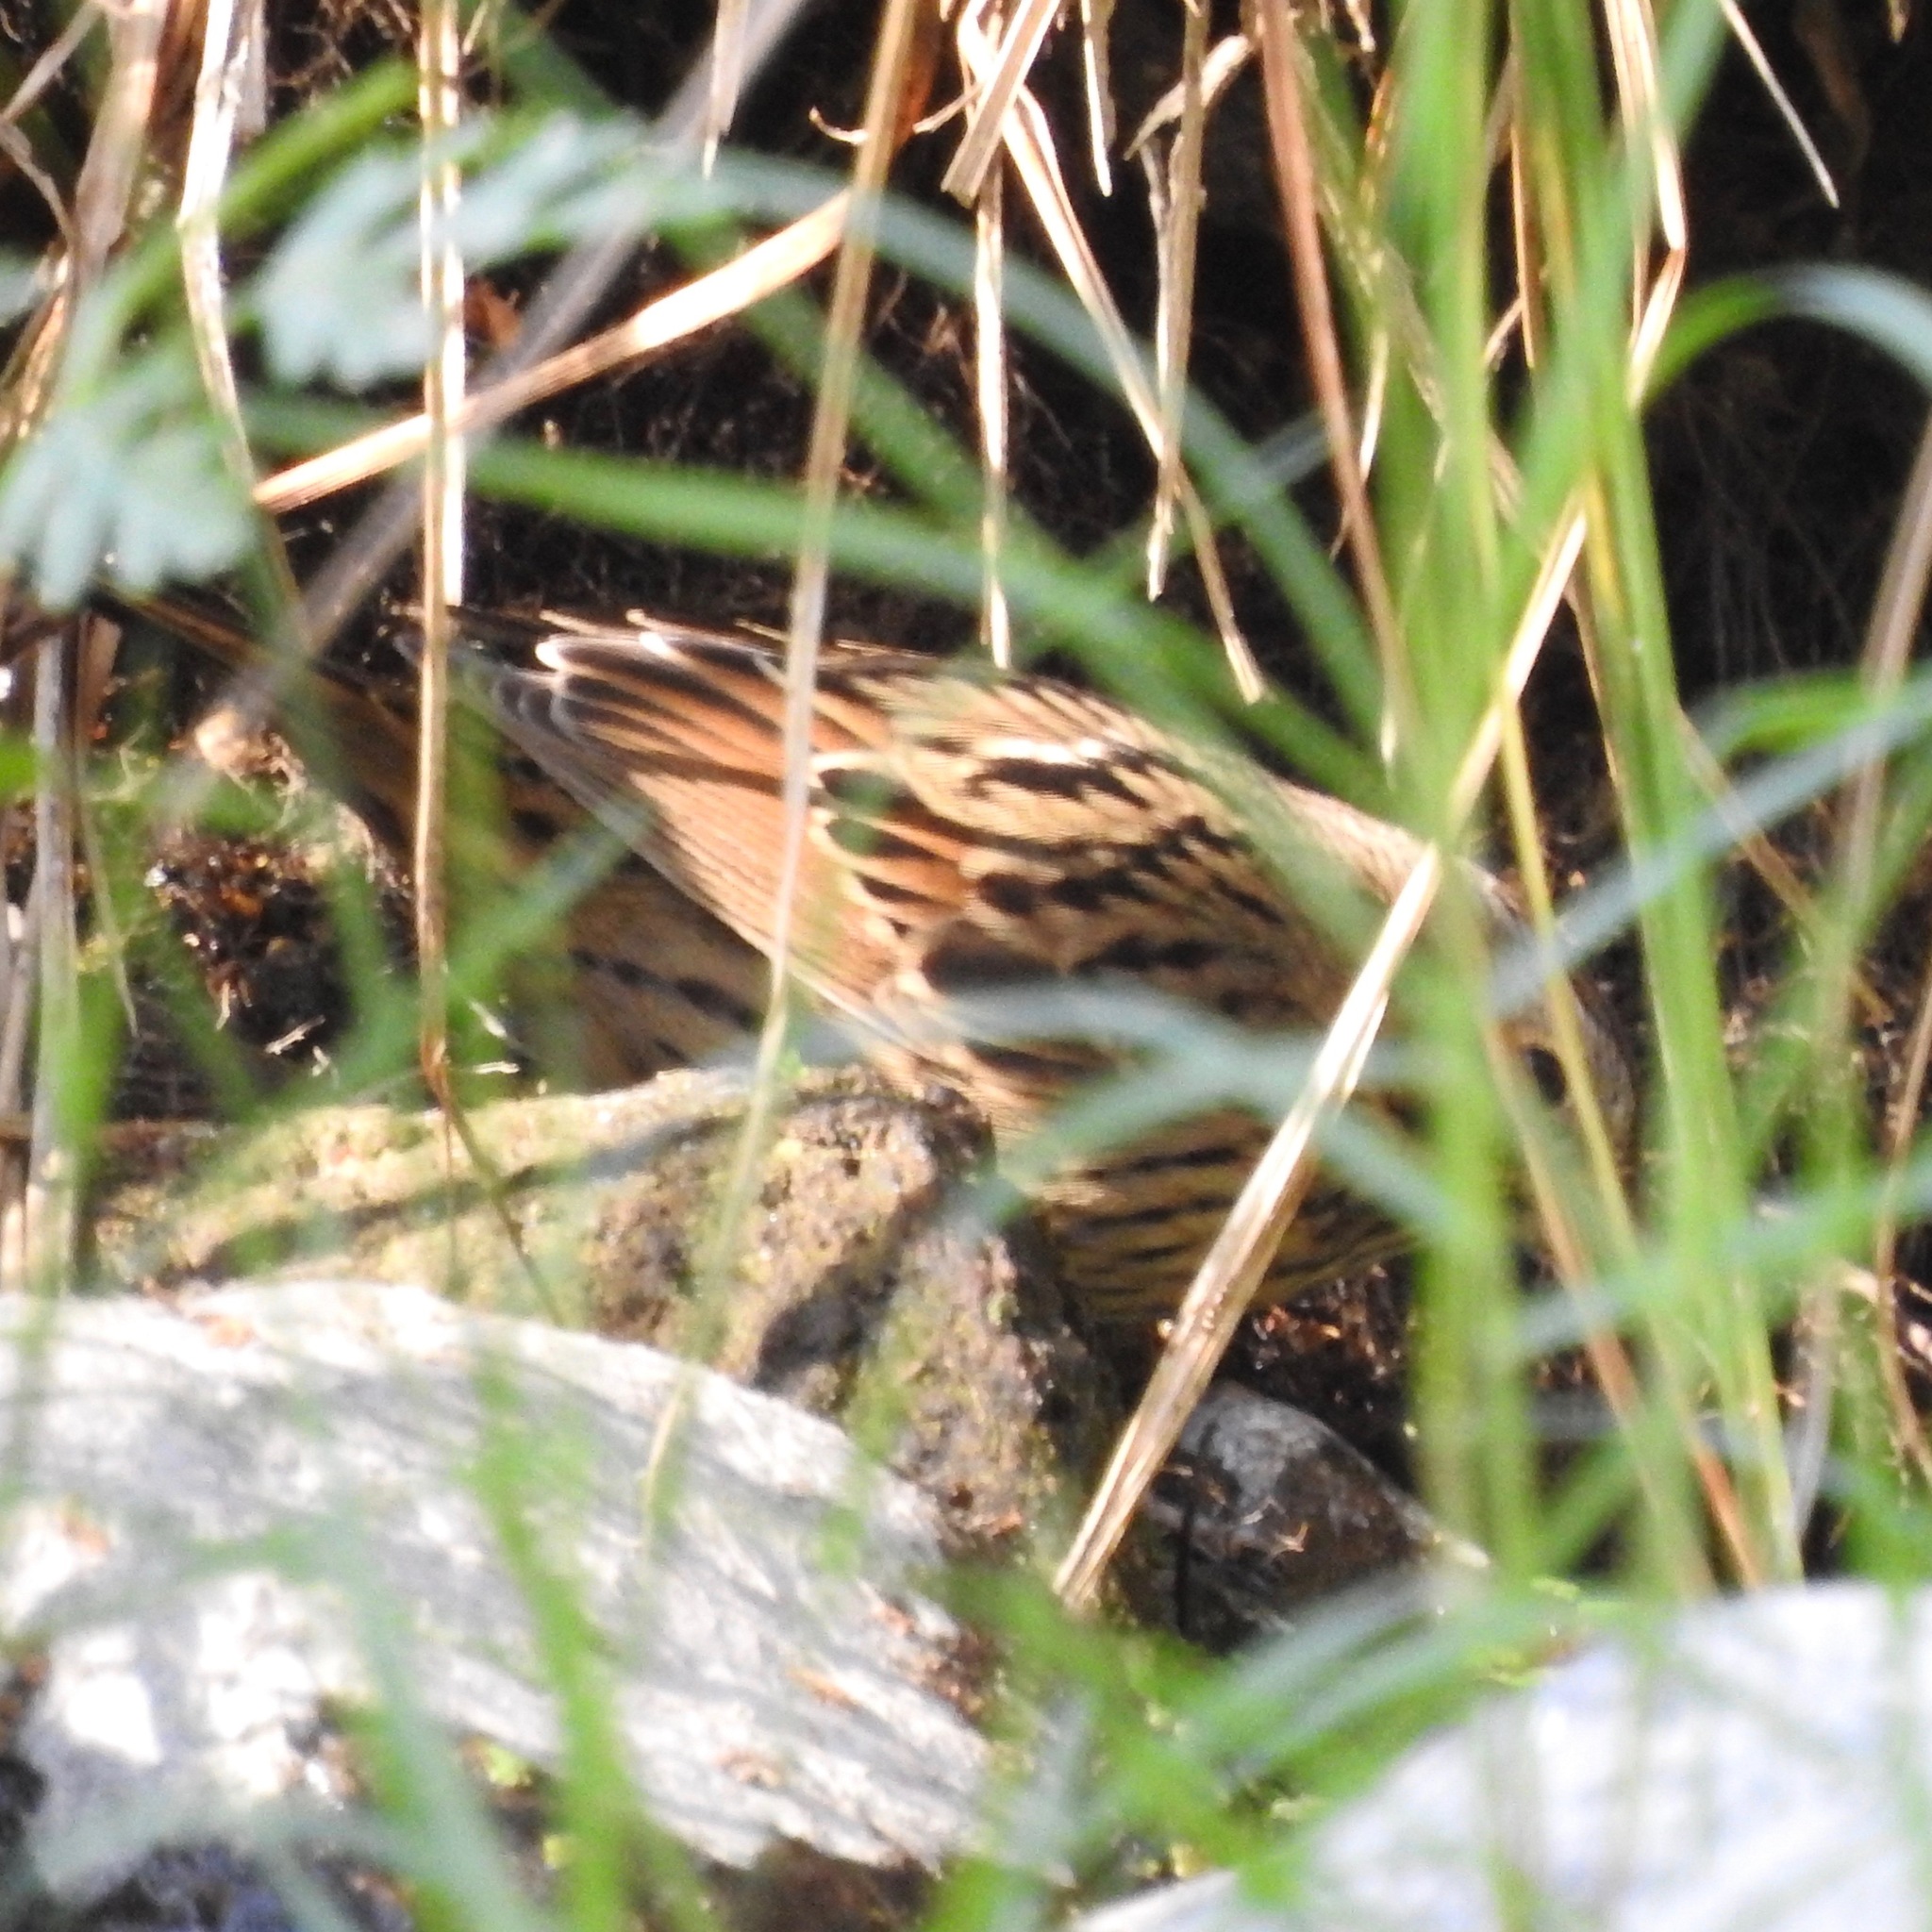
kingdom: Animalia
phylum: Chordata
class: Aves
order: Passeriformes
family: Passerellidae
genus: Melospiza
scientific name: Melospiza lincolnii
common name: Lincoln's sparrow
